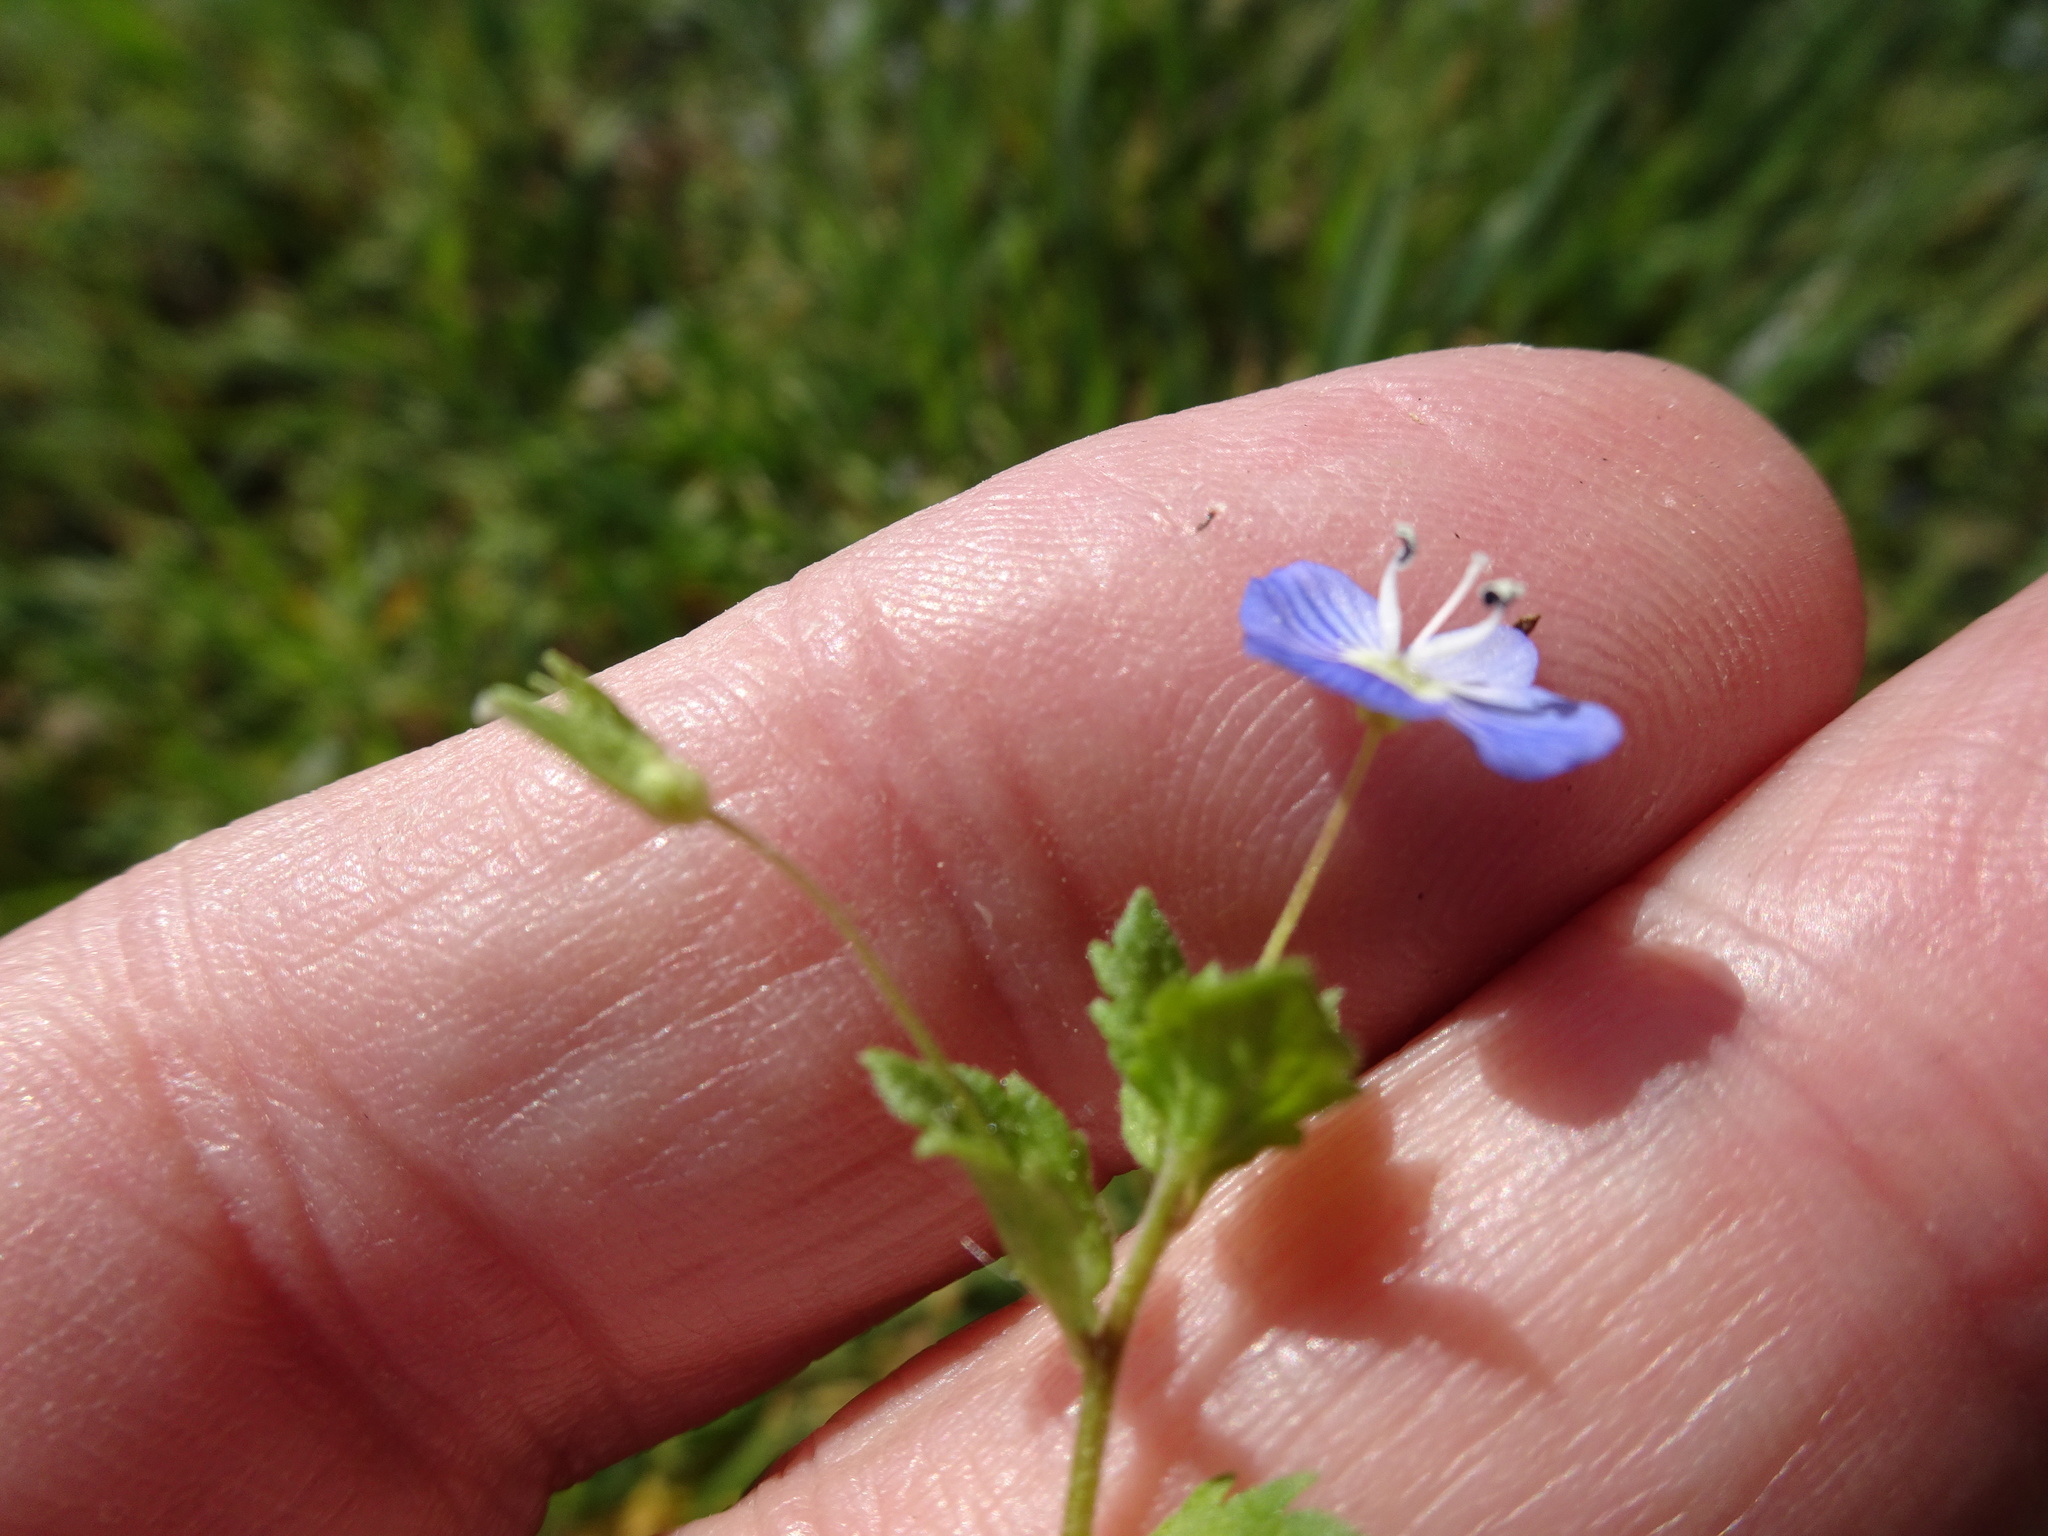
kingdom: Plantae
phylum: Tracheophyta
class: Magnoliopsida
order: Lamiales
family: Plantaginaceae
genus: Veronica
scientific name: Veronica persica
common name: Common field-speedwell
